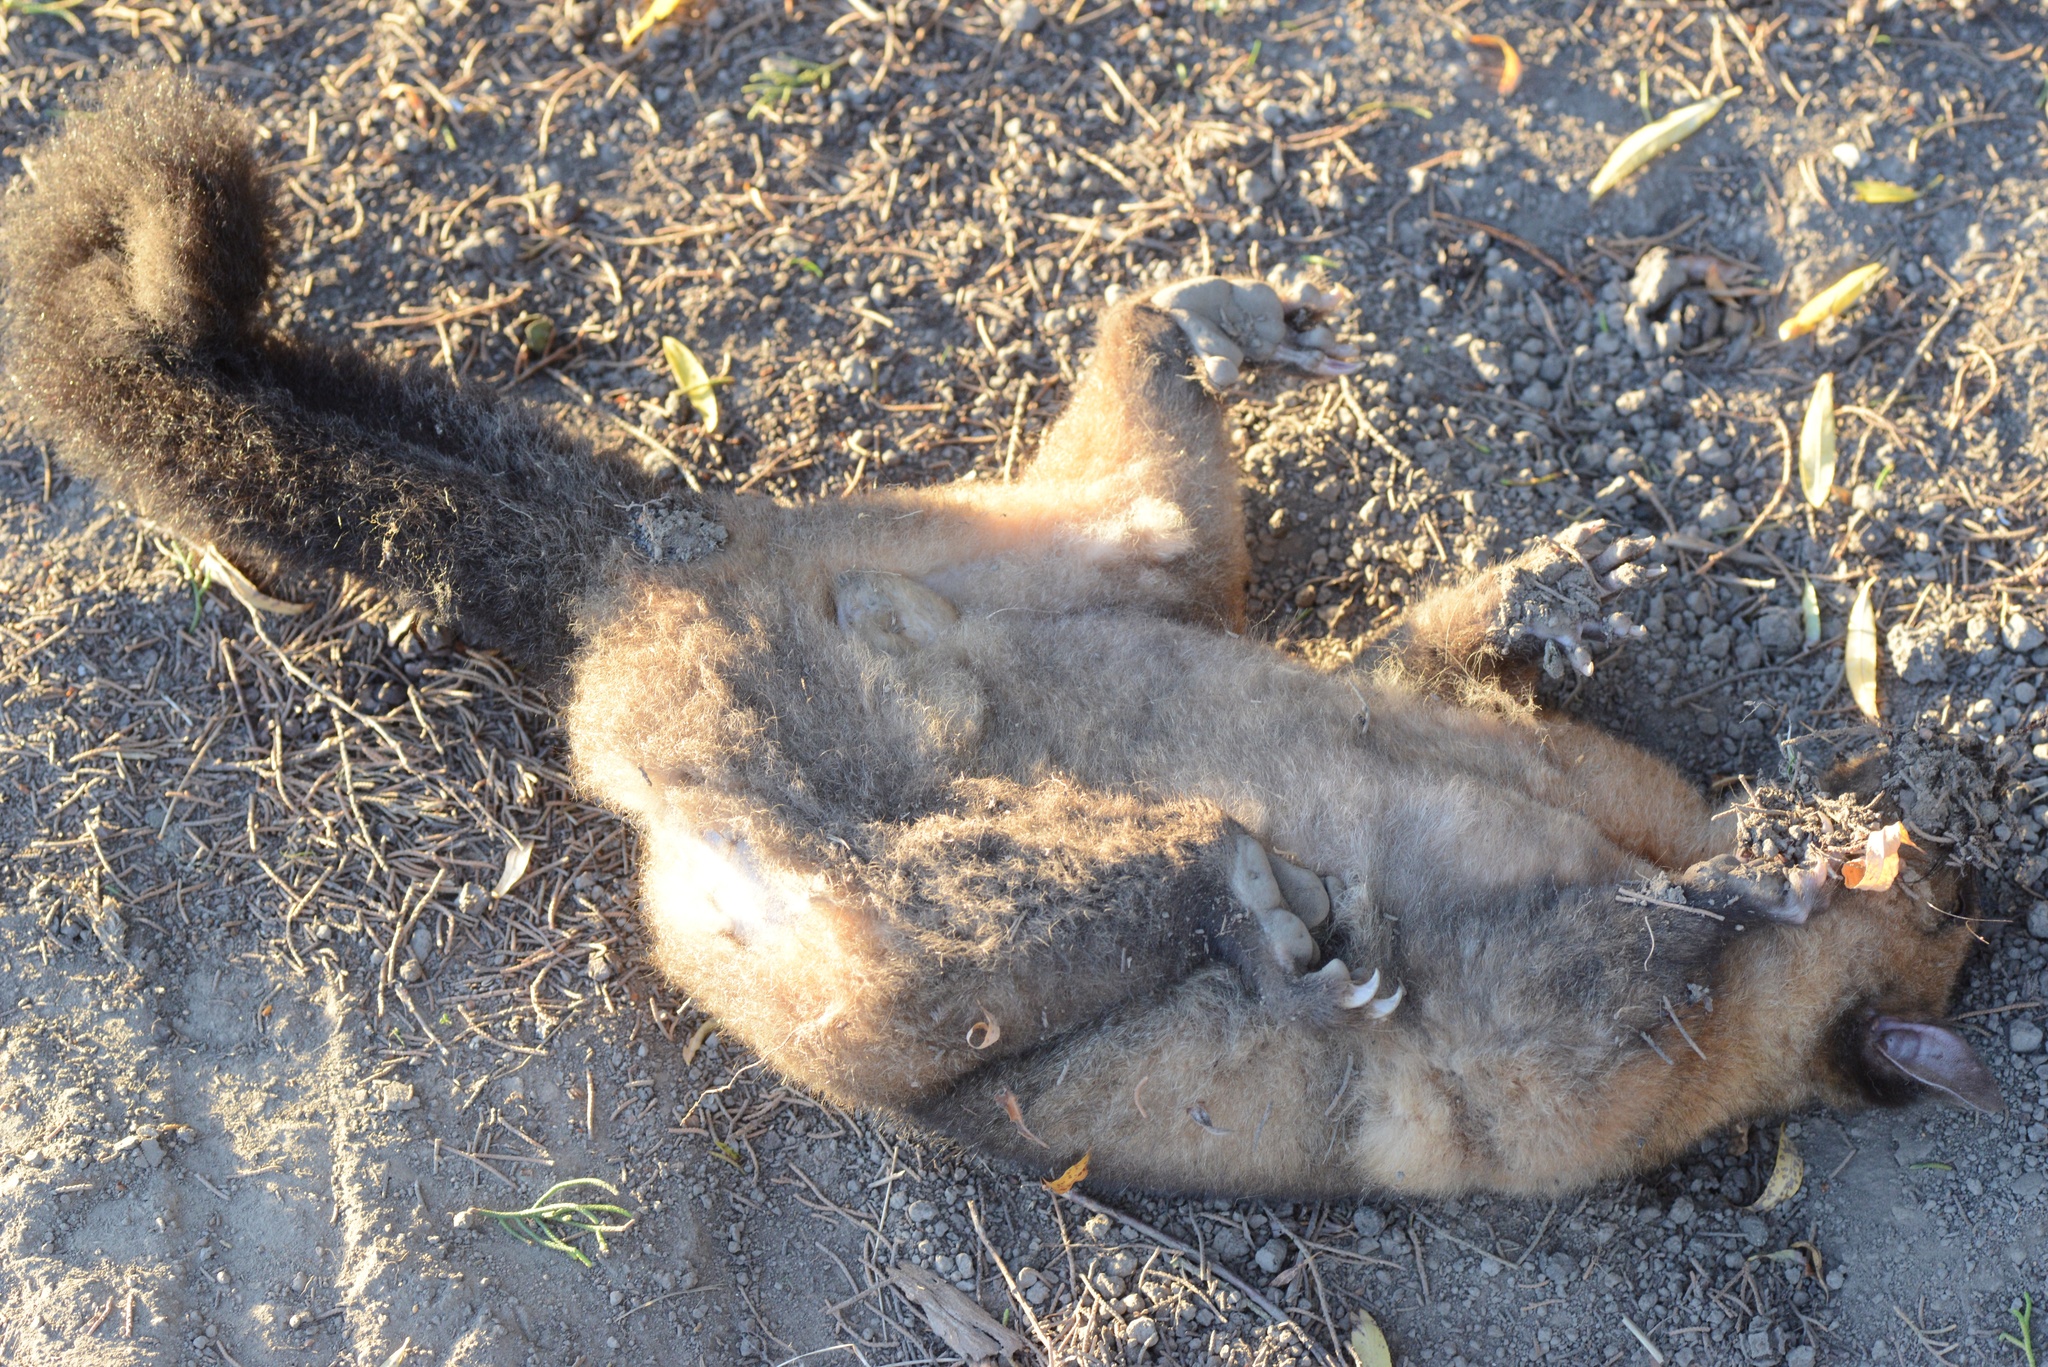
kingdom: Animalia
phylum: Chordata
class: Mammalia
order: Diprotodontia
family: Phalangeridae
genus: Trichosurus
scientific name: Trichosurus vulpecula
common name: Common brushtail
